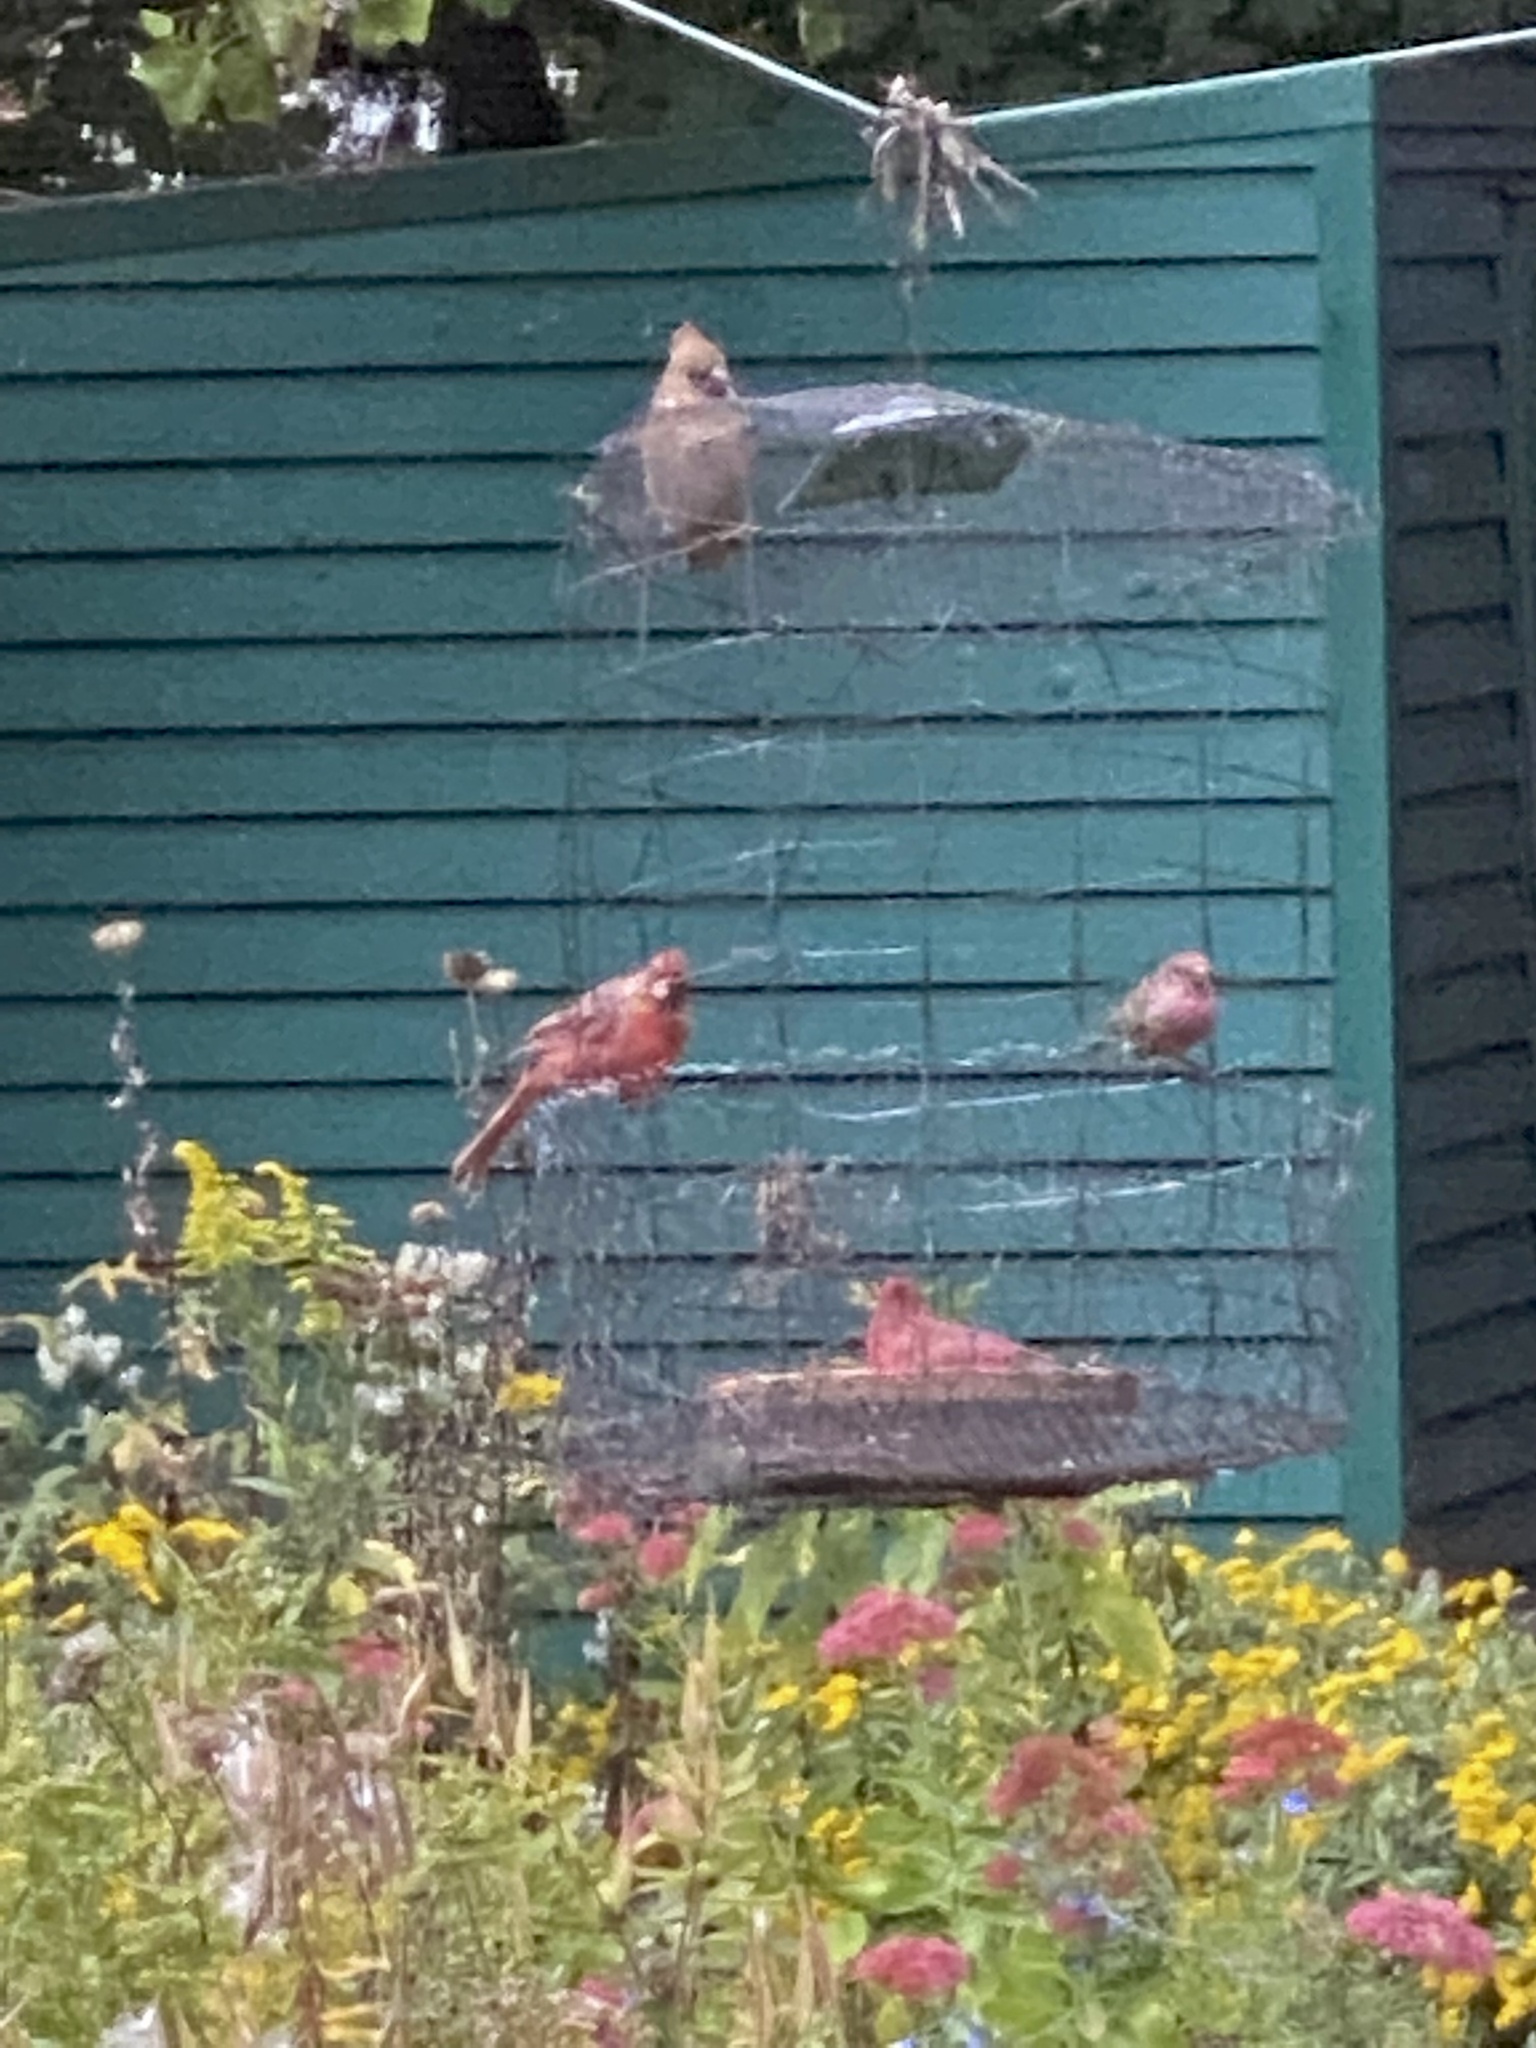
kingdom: Animalia
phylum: Chordata
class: Aves
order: Passeriformes
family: Cardinalidae
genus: Cardinalis
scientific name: Cardinalis cardinalis
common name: Northern cardinal
